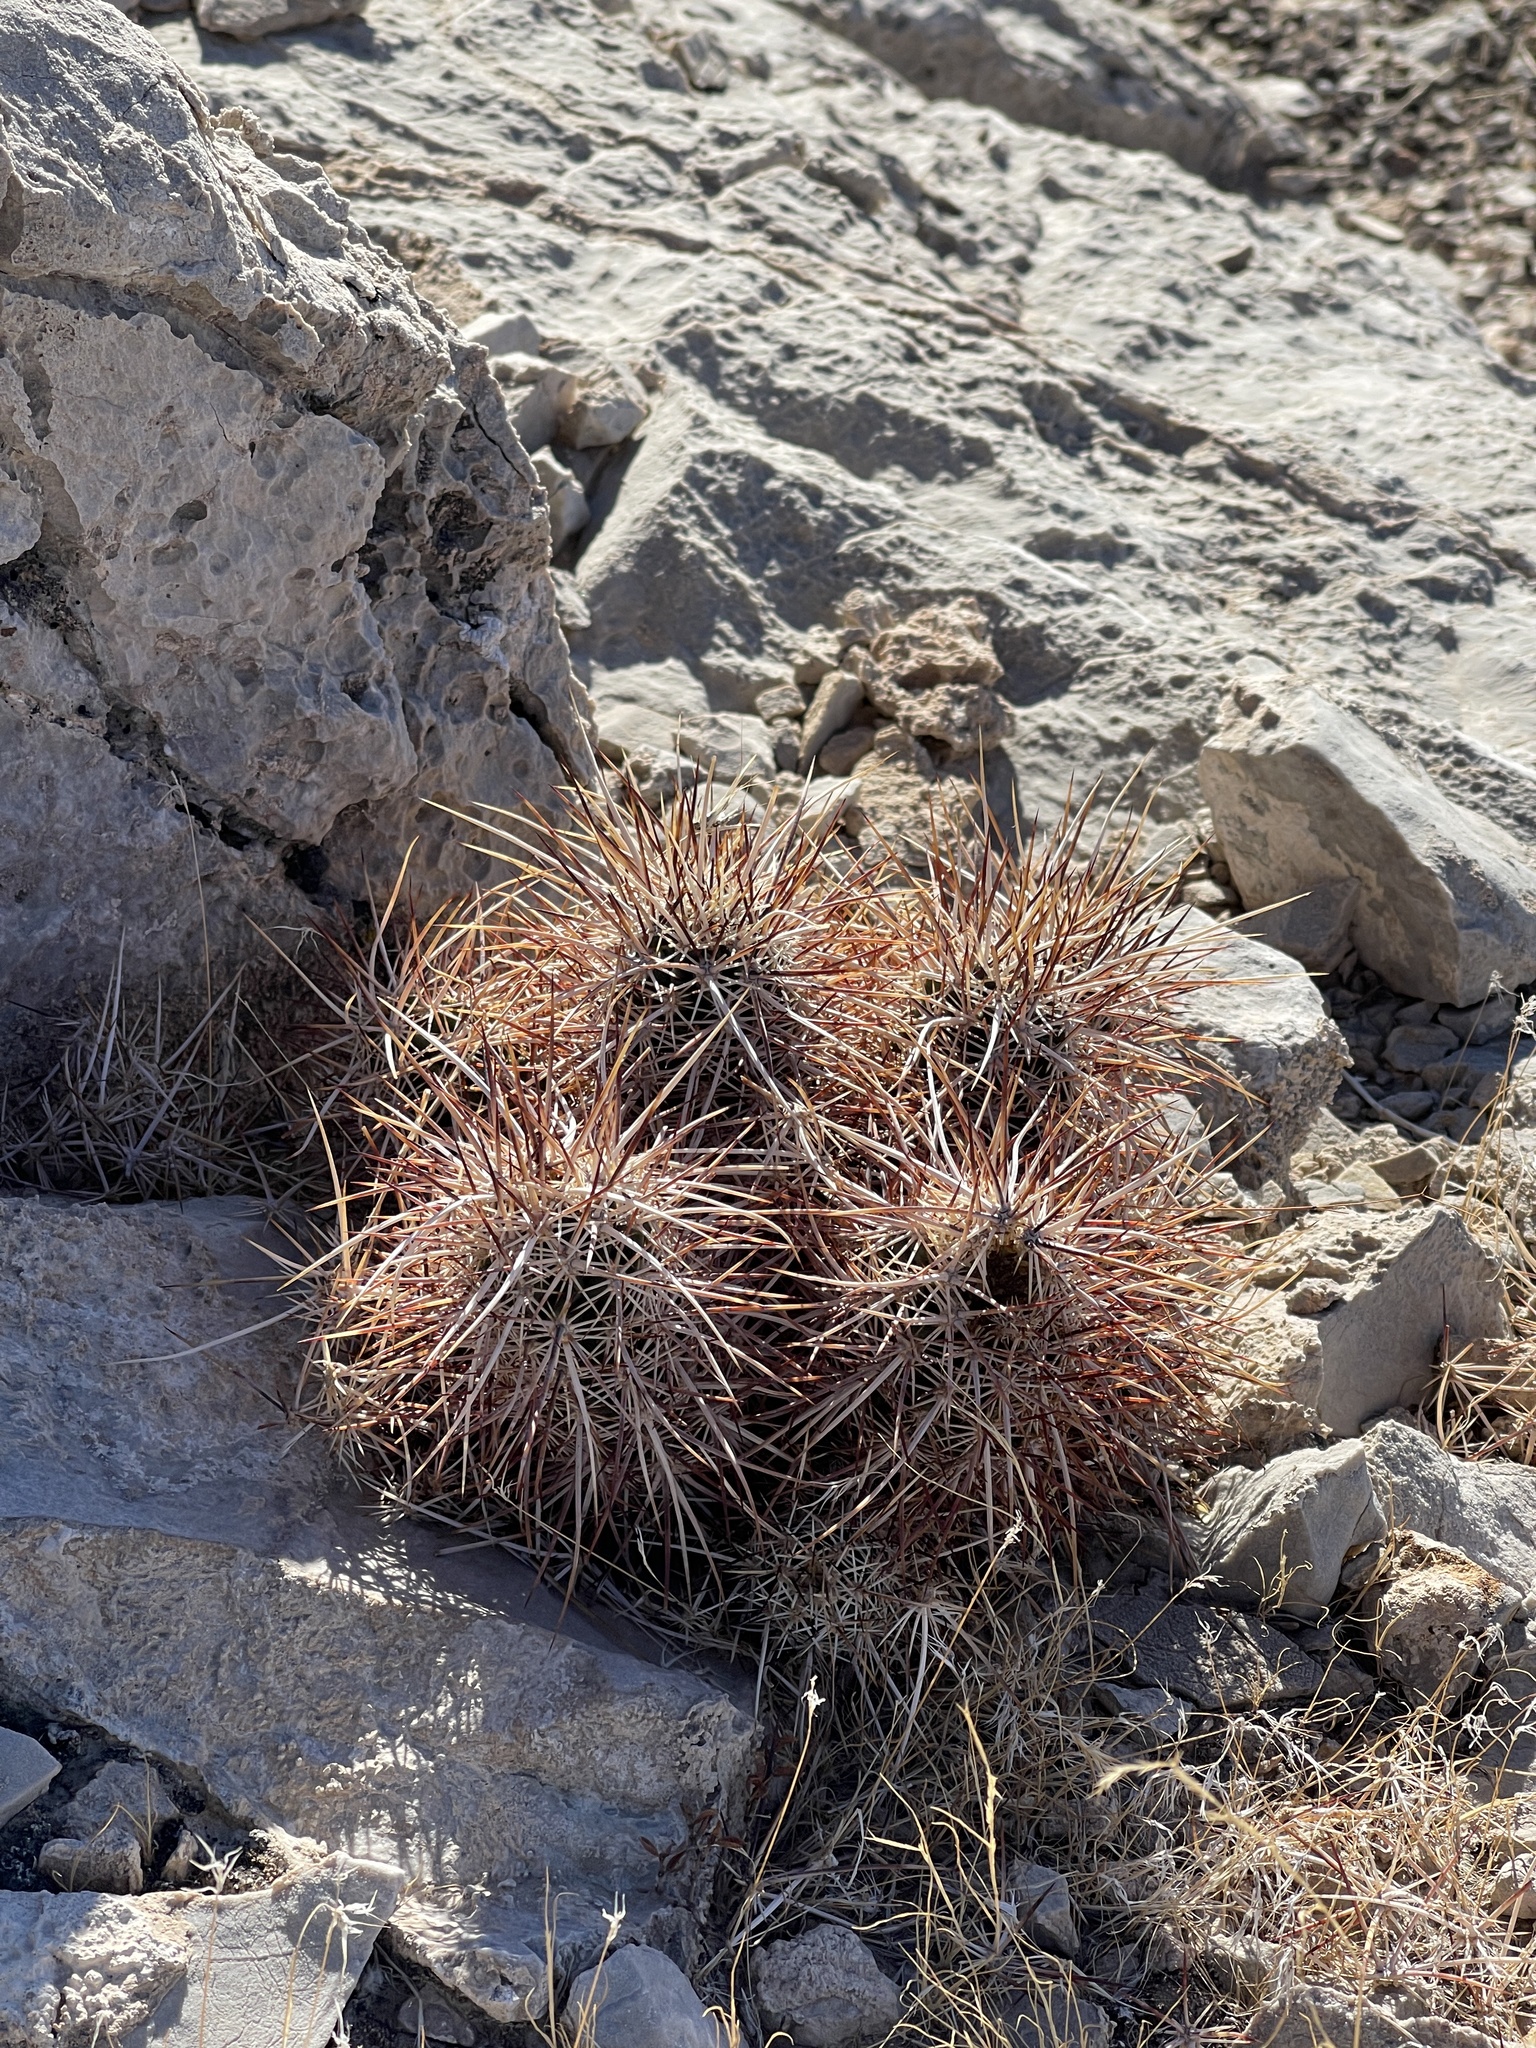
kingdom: Plantae
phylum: Tracheophyta
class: Magnoliopsida
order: Caryophyllales
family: Cactaceae
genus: Echinocereus
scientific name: Echinocereus engelmannii
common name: Engelmann's hedgehog cactus
